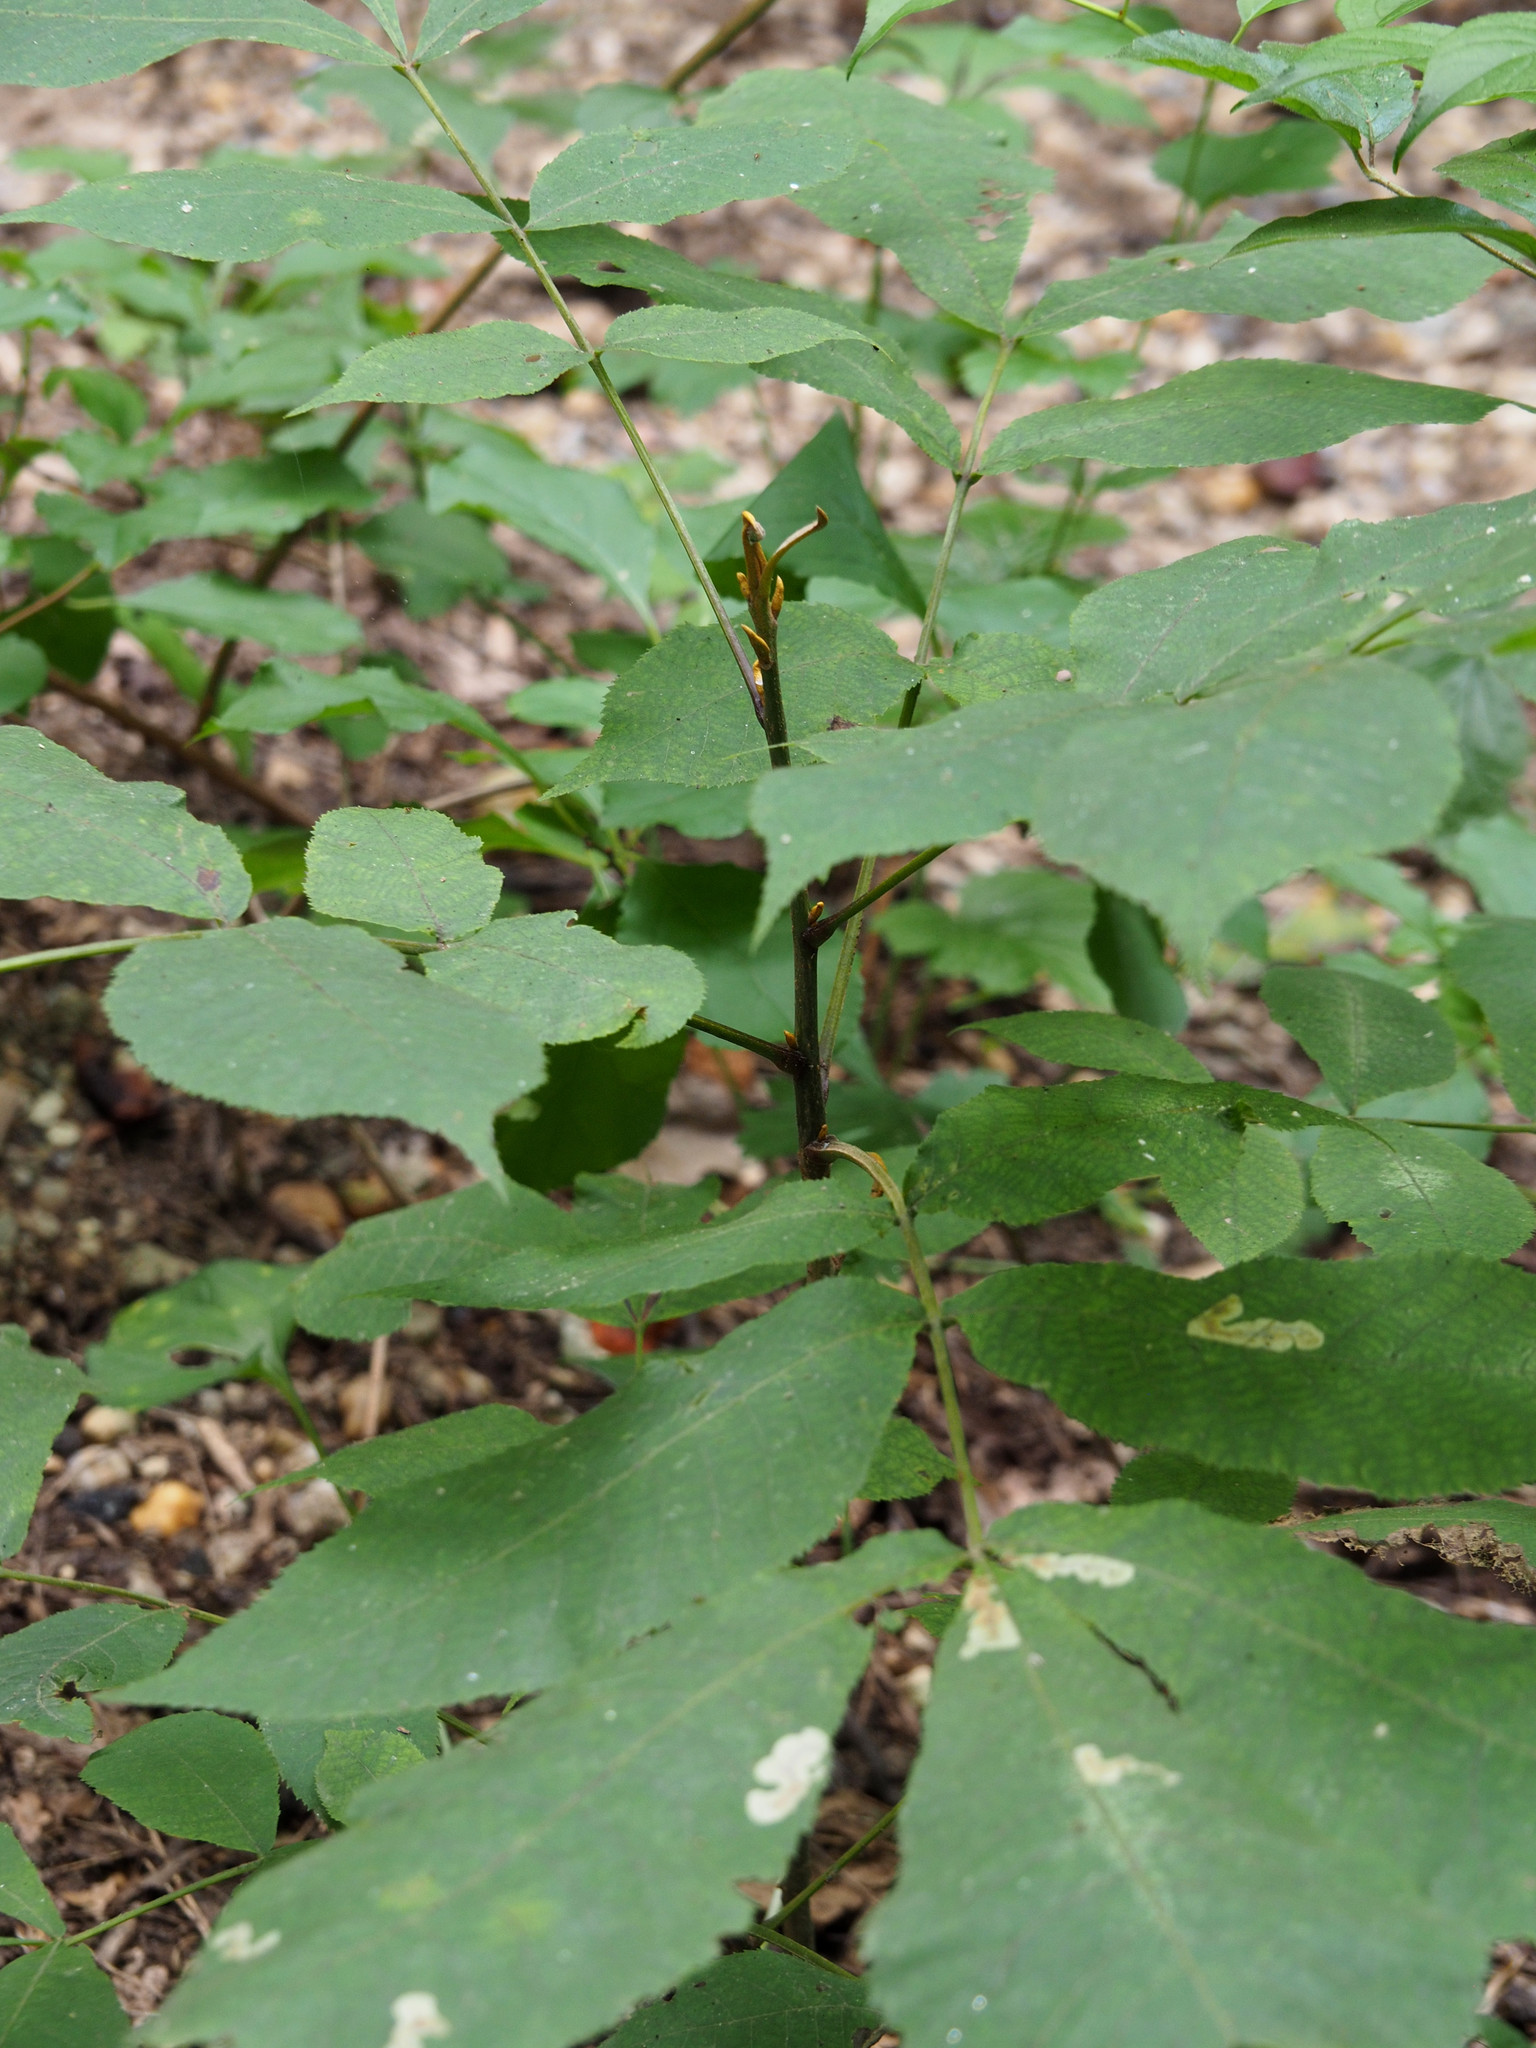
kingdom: Plantae
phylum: Tracheophyta
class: Magnoliopsida
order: Fagales
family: Juglandaceae
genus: Carya
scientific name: Carya cordiformis
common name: Bitternut hickory
